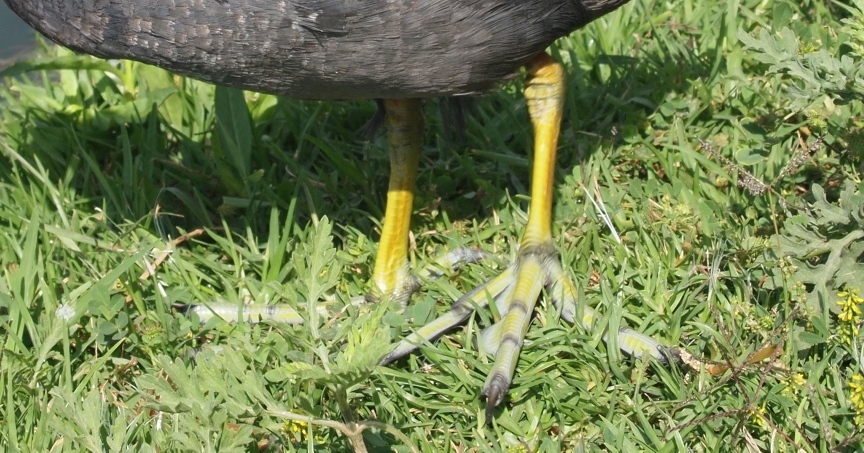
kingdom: Animalia
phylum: Chordata
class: Aves
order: Gruiformes
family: Rallidae
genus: Fulica
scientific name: Fulica americana
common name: American coot
